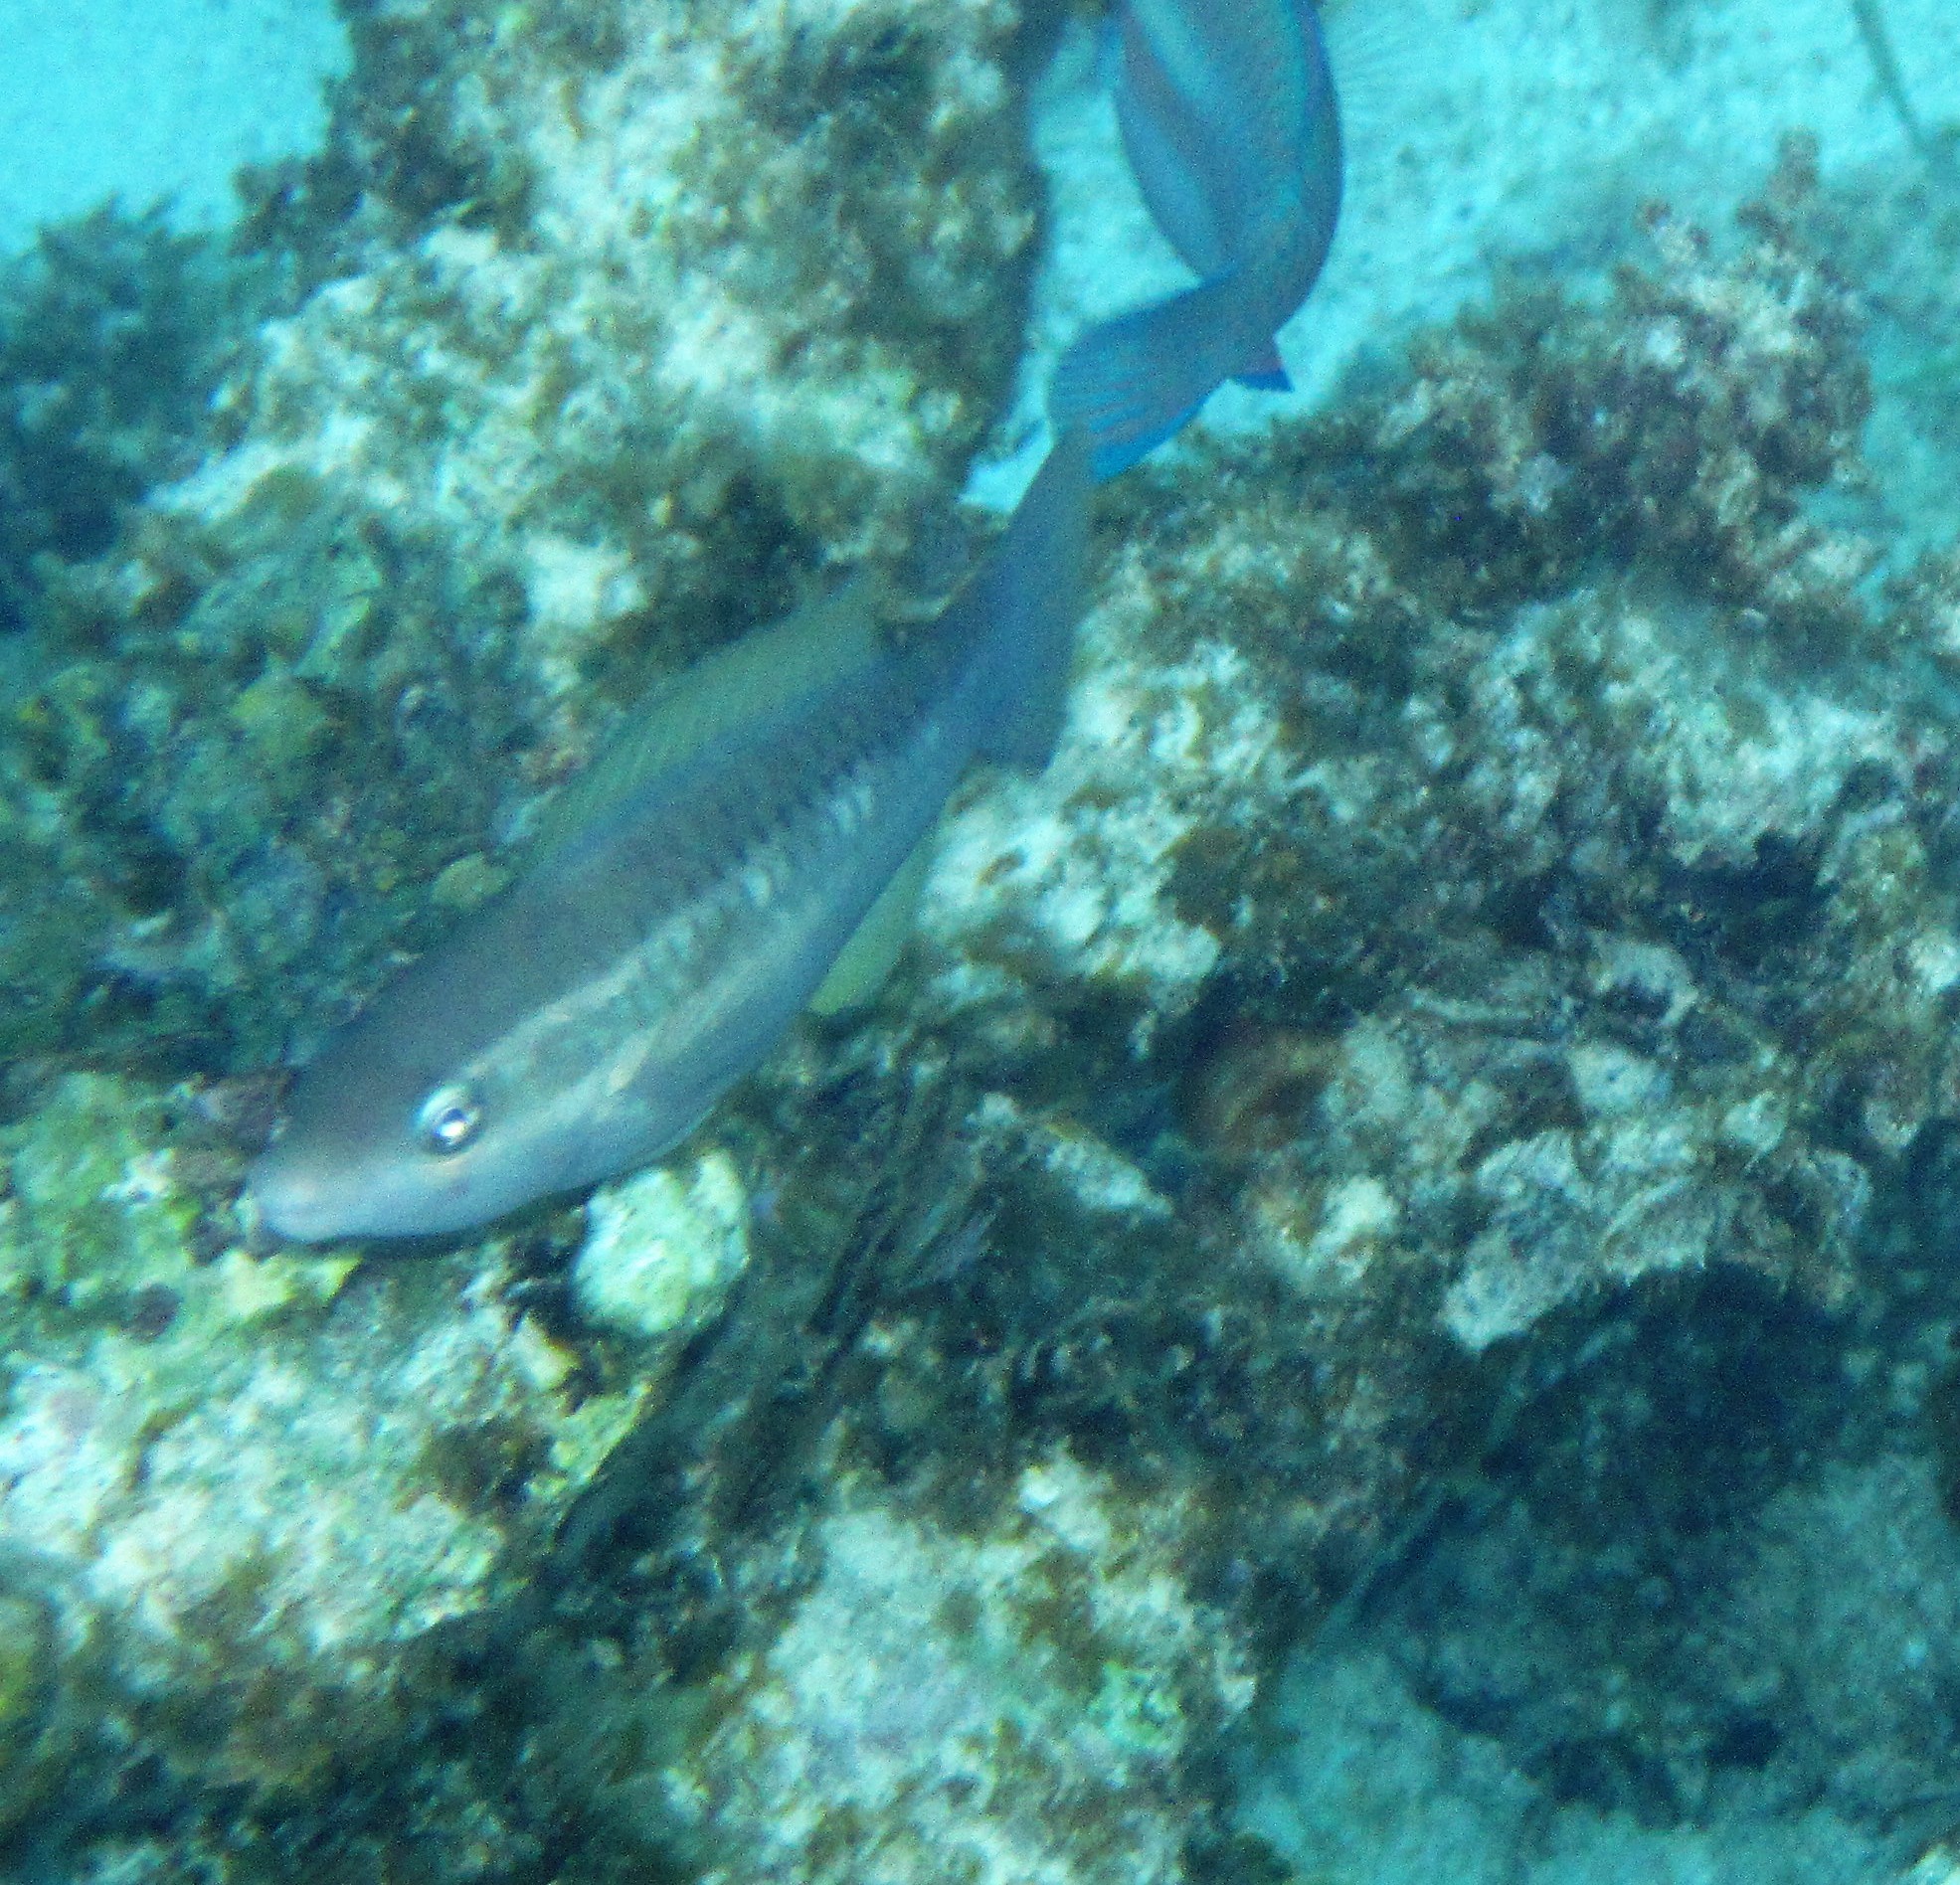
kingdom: Animalia
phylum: Chordata
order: Perciformes
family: Scaridae
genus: Scarus
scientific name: Scarus vetula
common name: Queen parrotfish
